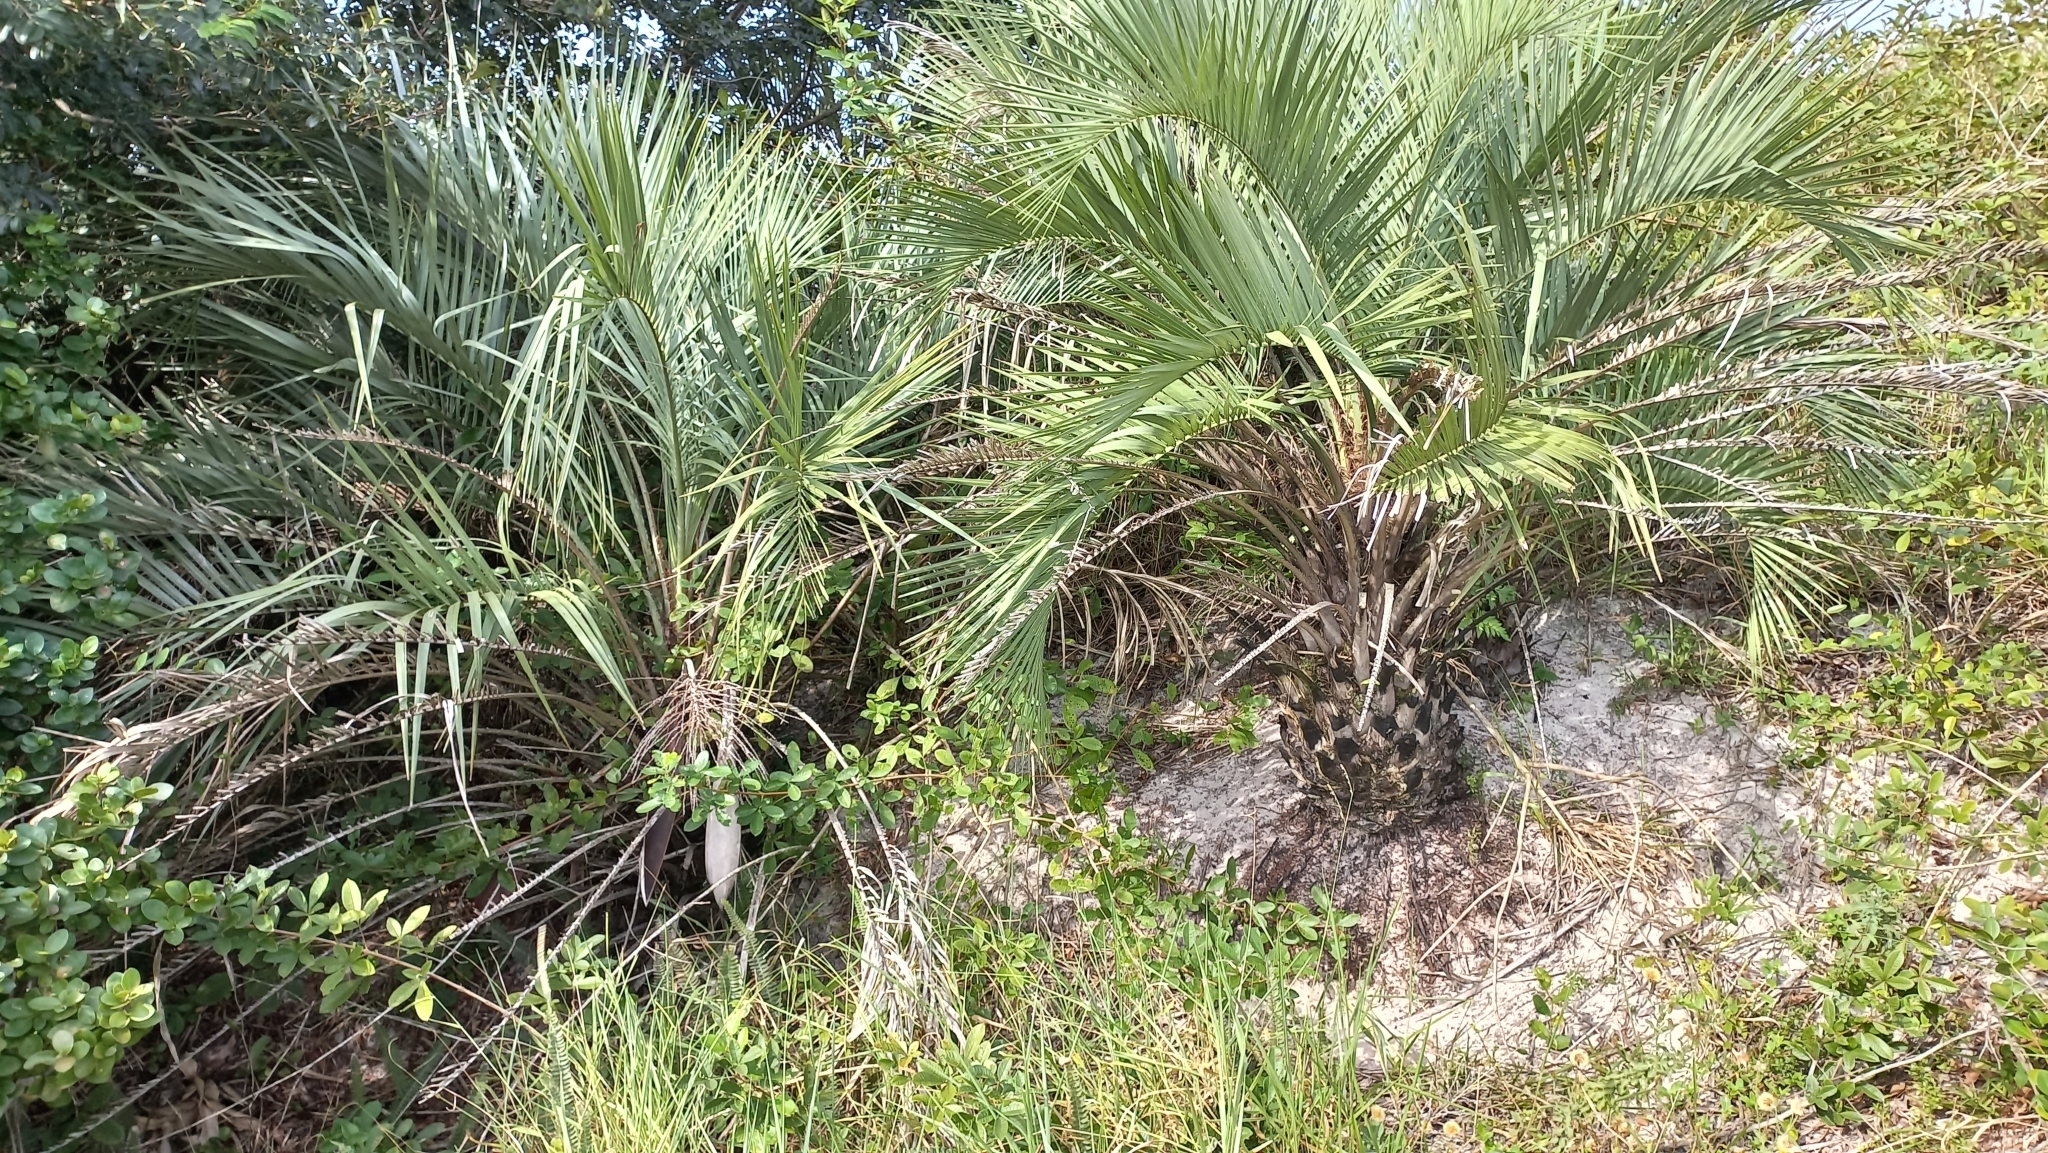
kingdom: Plantae
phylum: Tracheophyta
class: Liliopsida
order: Arecales
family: Arecaceae
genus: Butia
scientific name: Butia catarinensis
